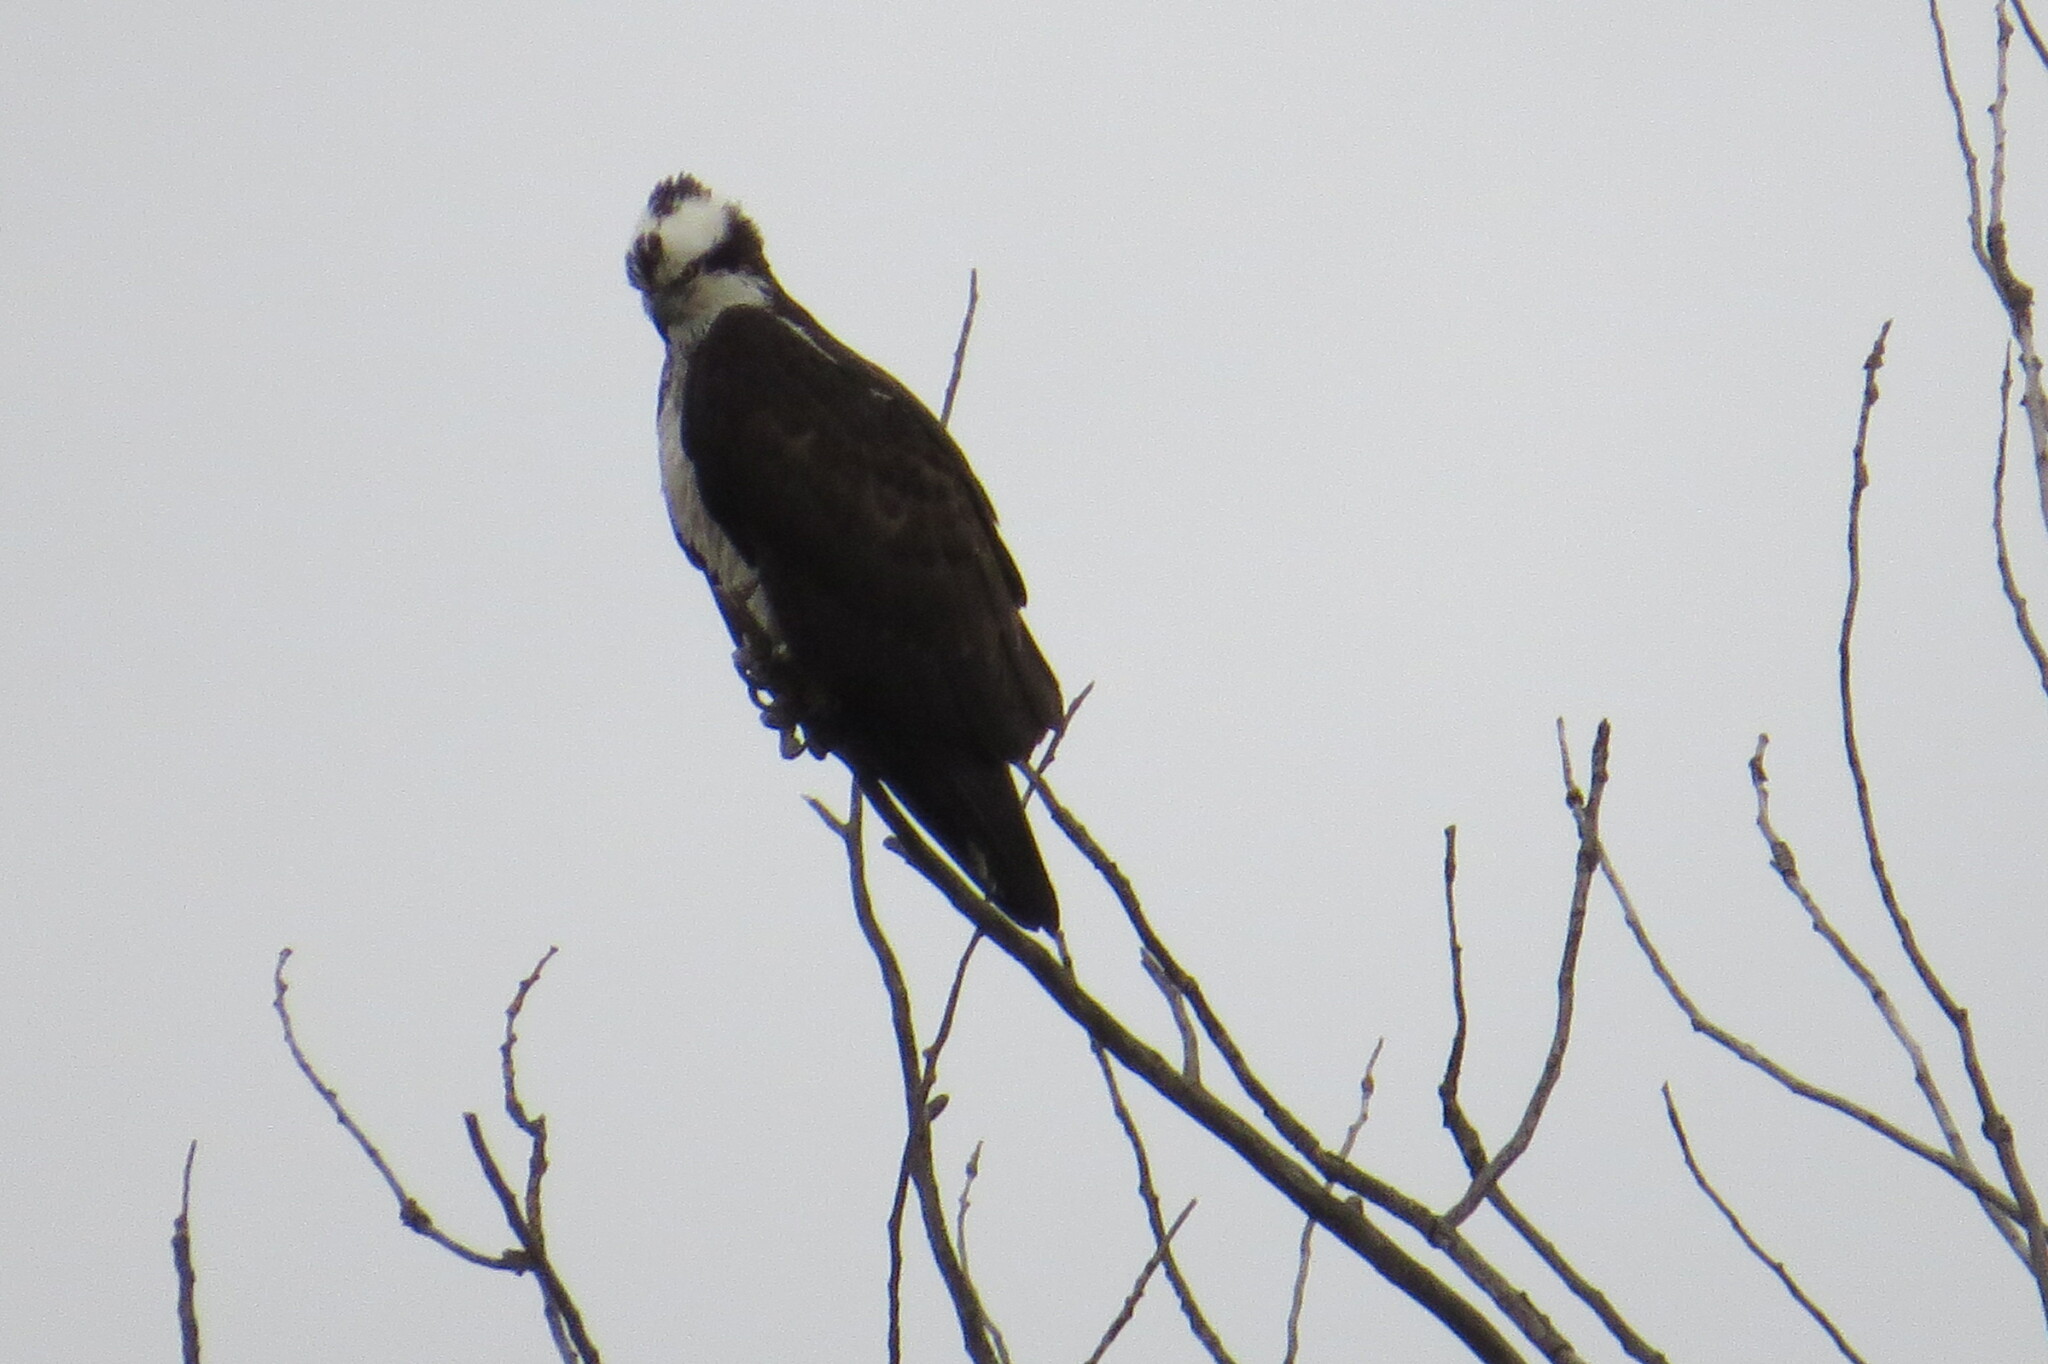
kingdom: Animalia
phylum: Chordata
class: Aves
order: Accipitriformes
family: Pandionidae
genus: Pandion
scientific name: Pandion haliaetus
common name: Osprey
